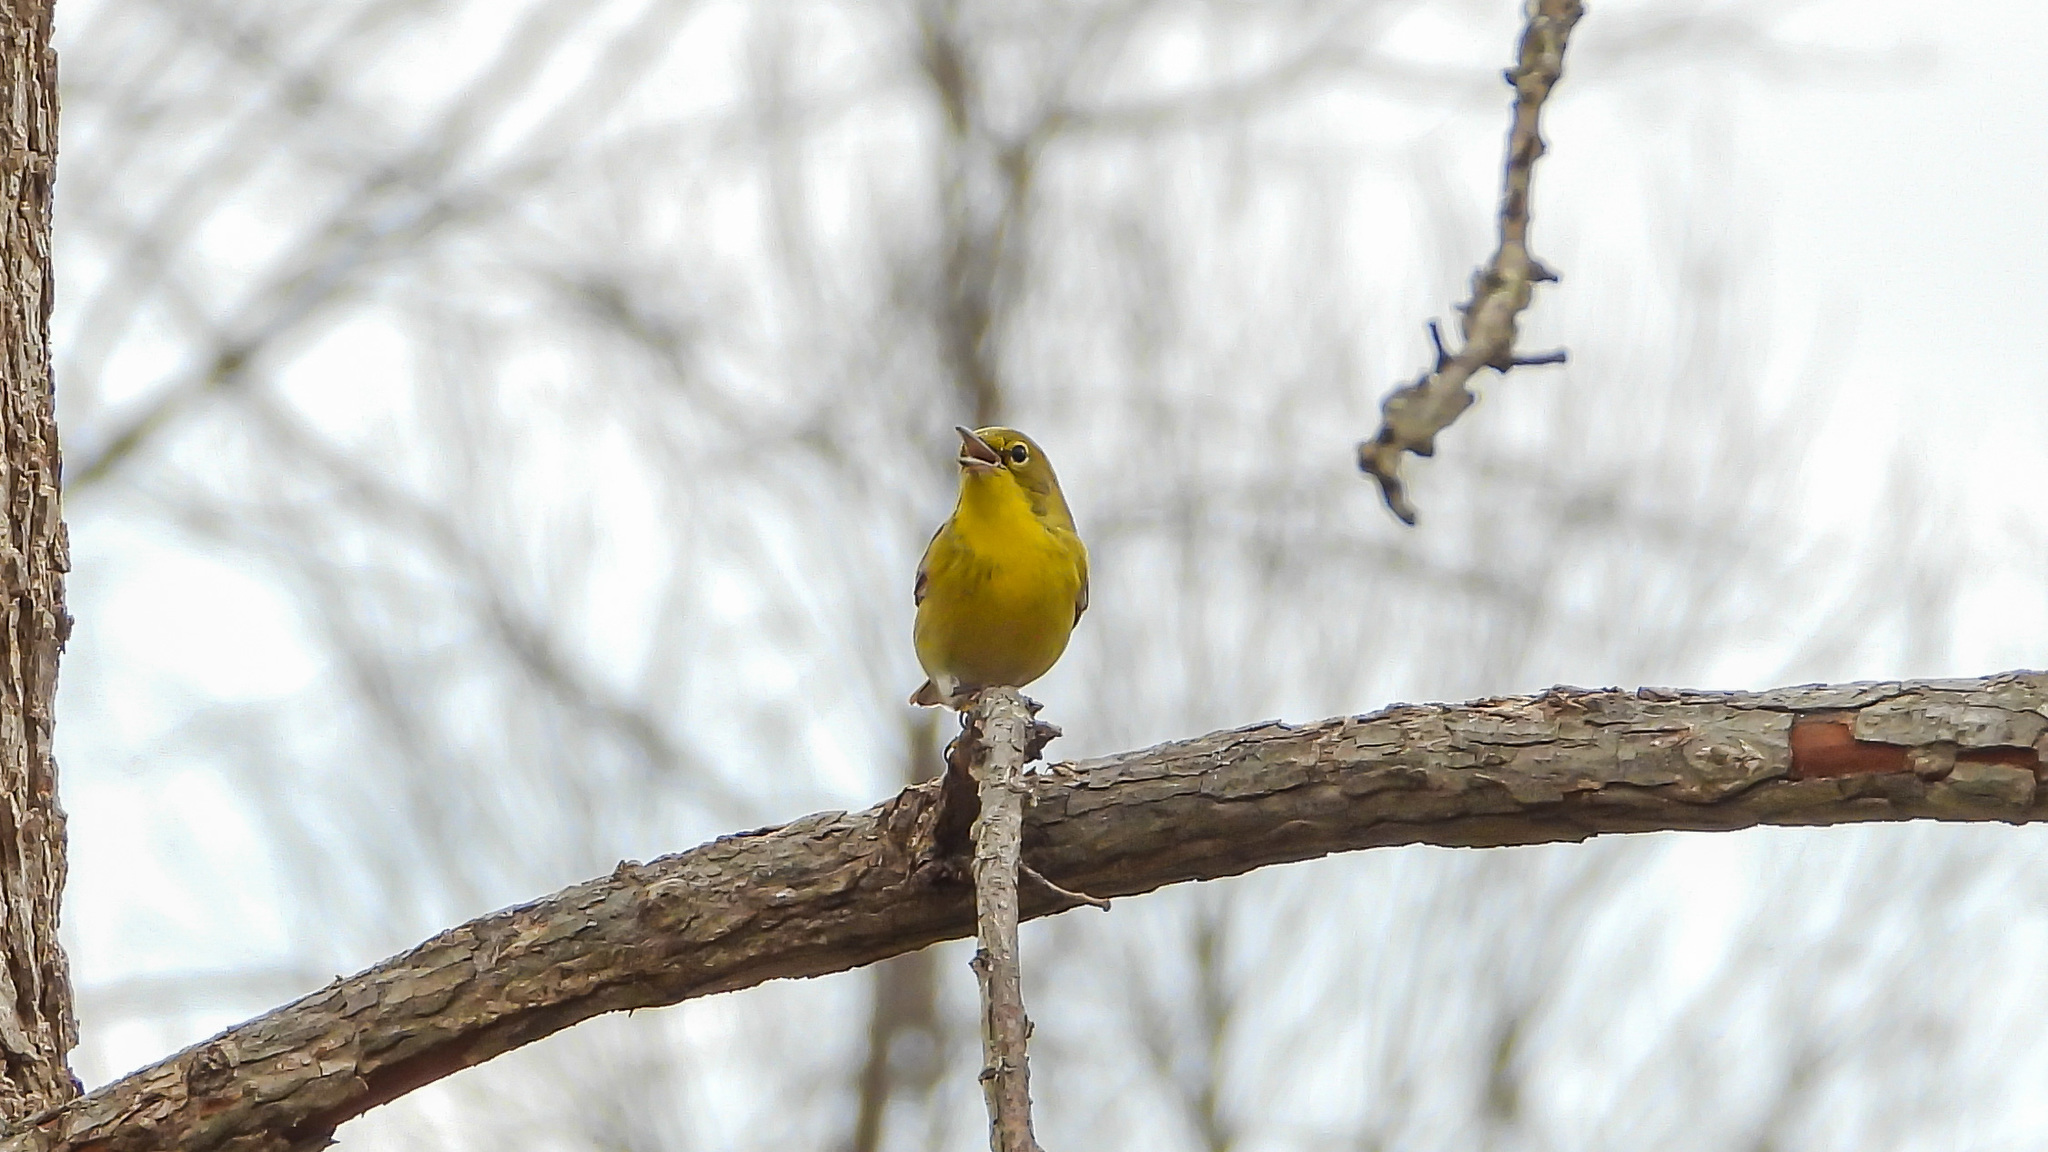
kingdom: Animalia
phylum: Chordata
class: Aves
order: Passeriformes
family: Parulidae
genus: Setophaga
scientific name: Setophaga pinus
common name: Pine warbler
